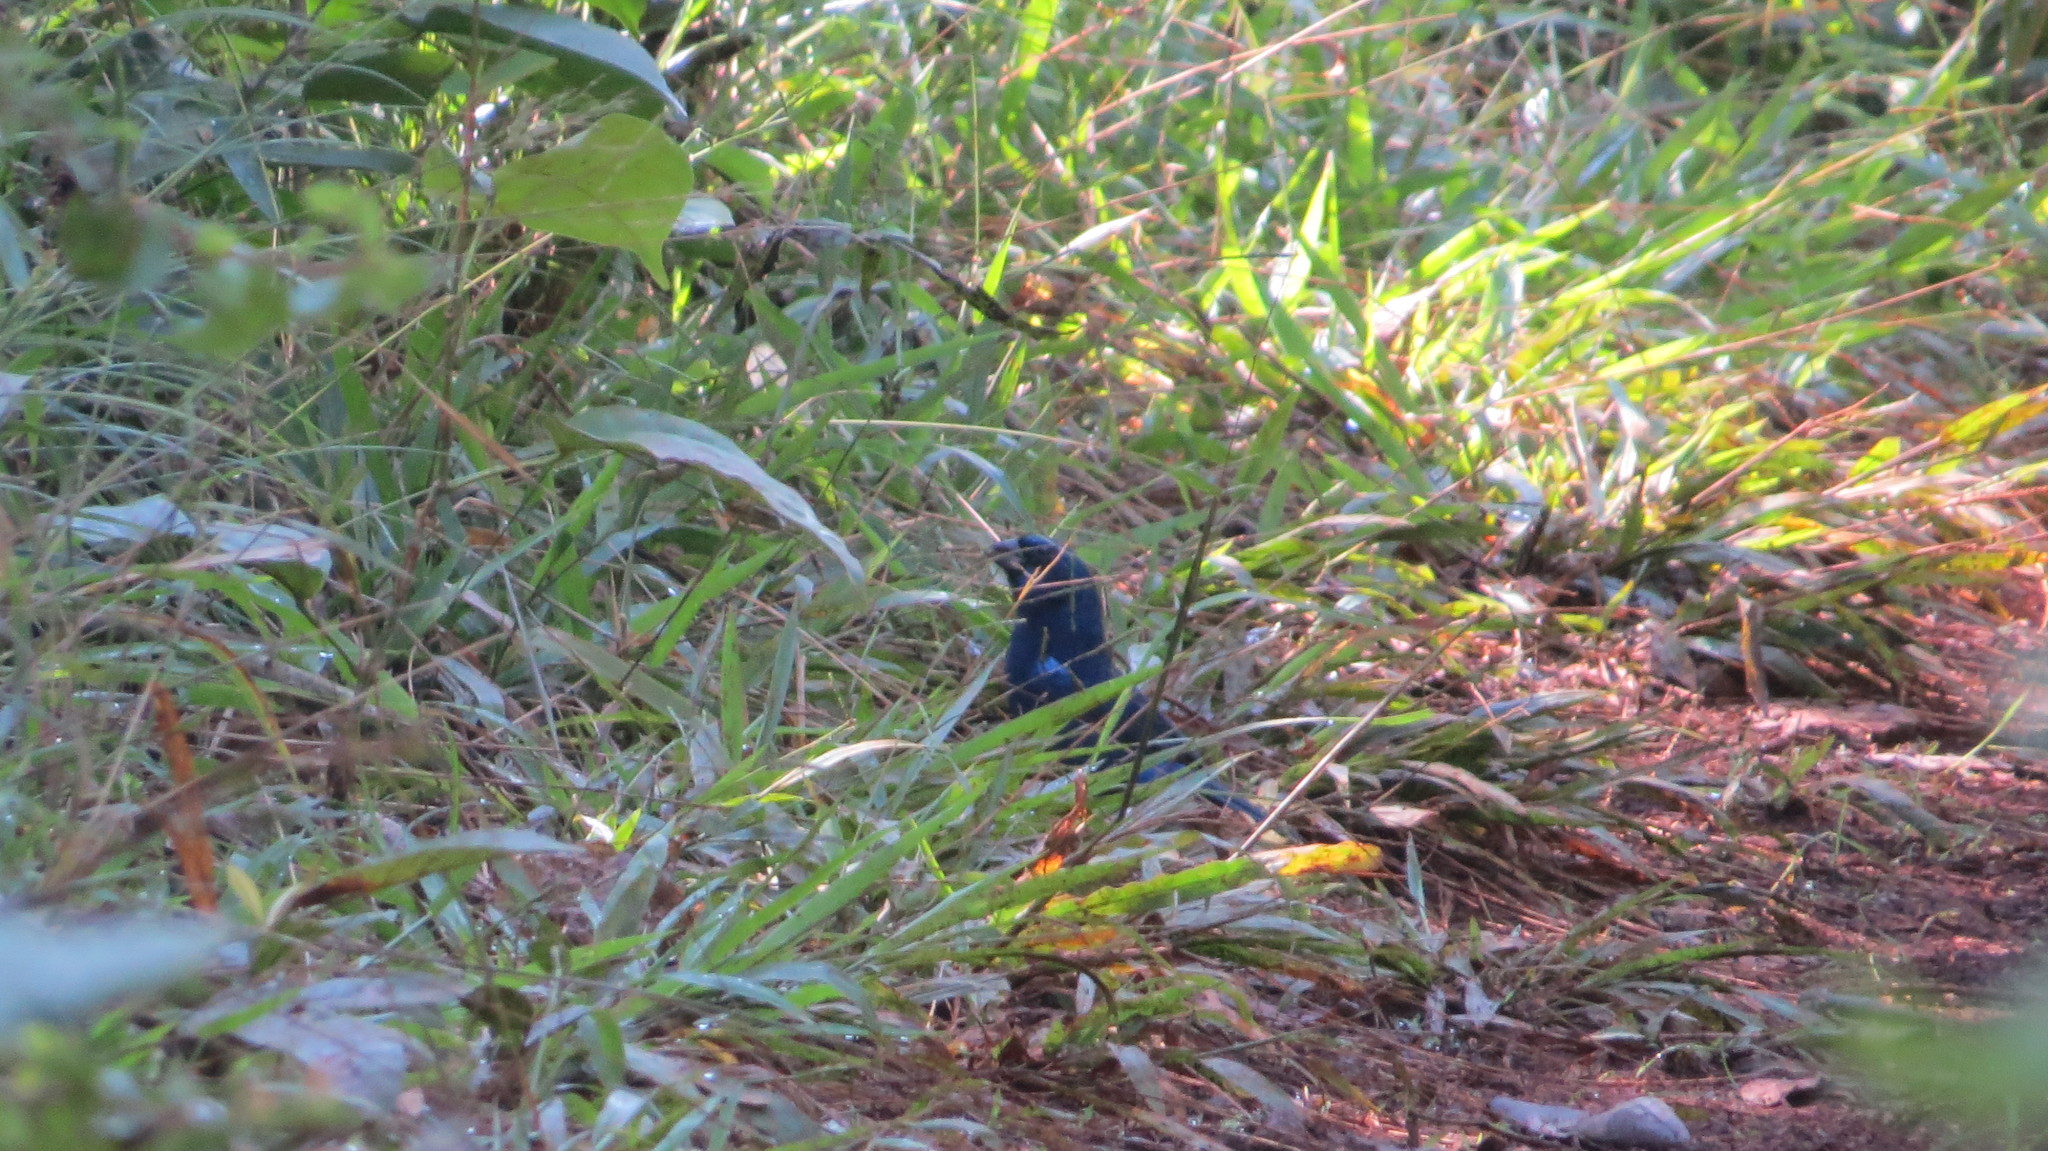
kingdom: Animalia
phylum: Chordata
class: Aves
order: Passeriformes
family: Cardinalidae
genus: Cyanocompsa
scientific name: Cyanocompsa parellina
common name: Blue bunting
